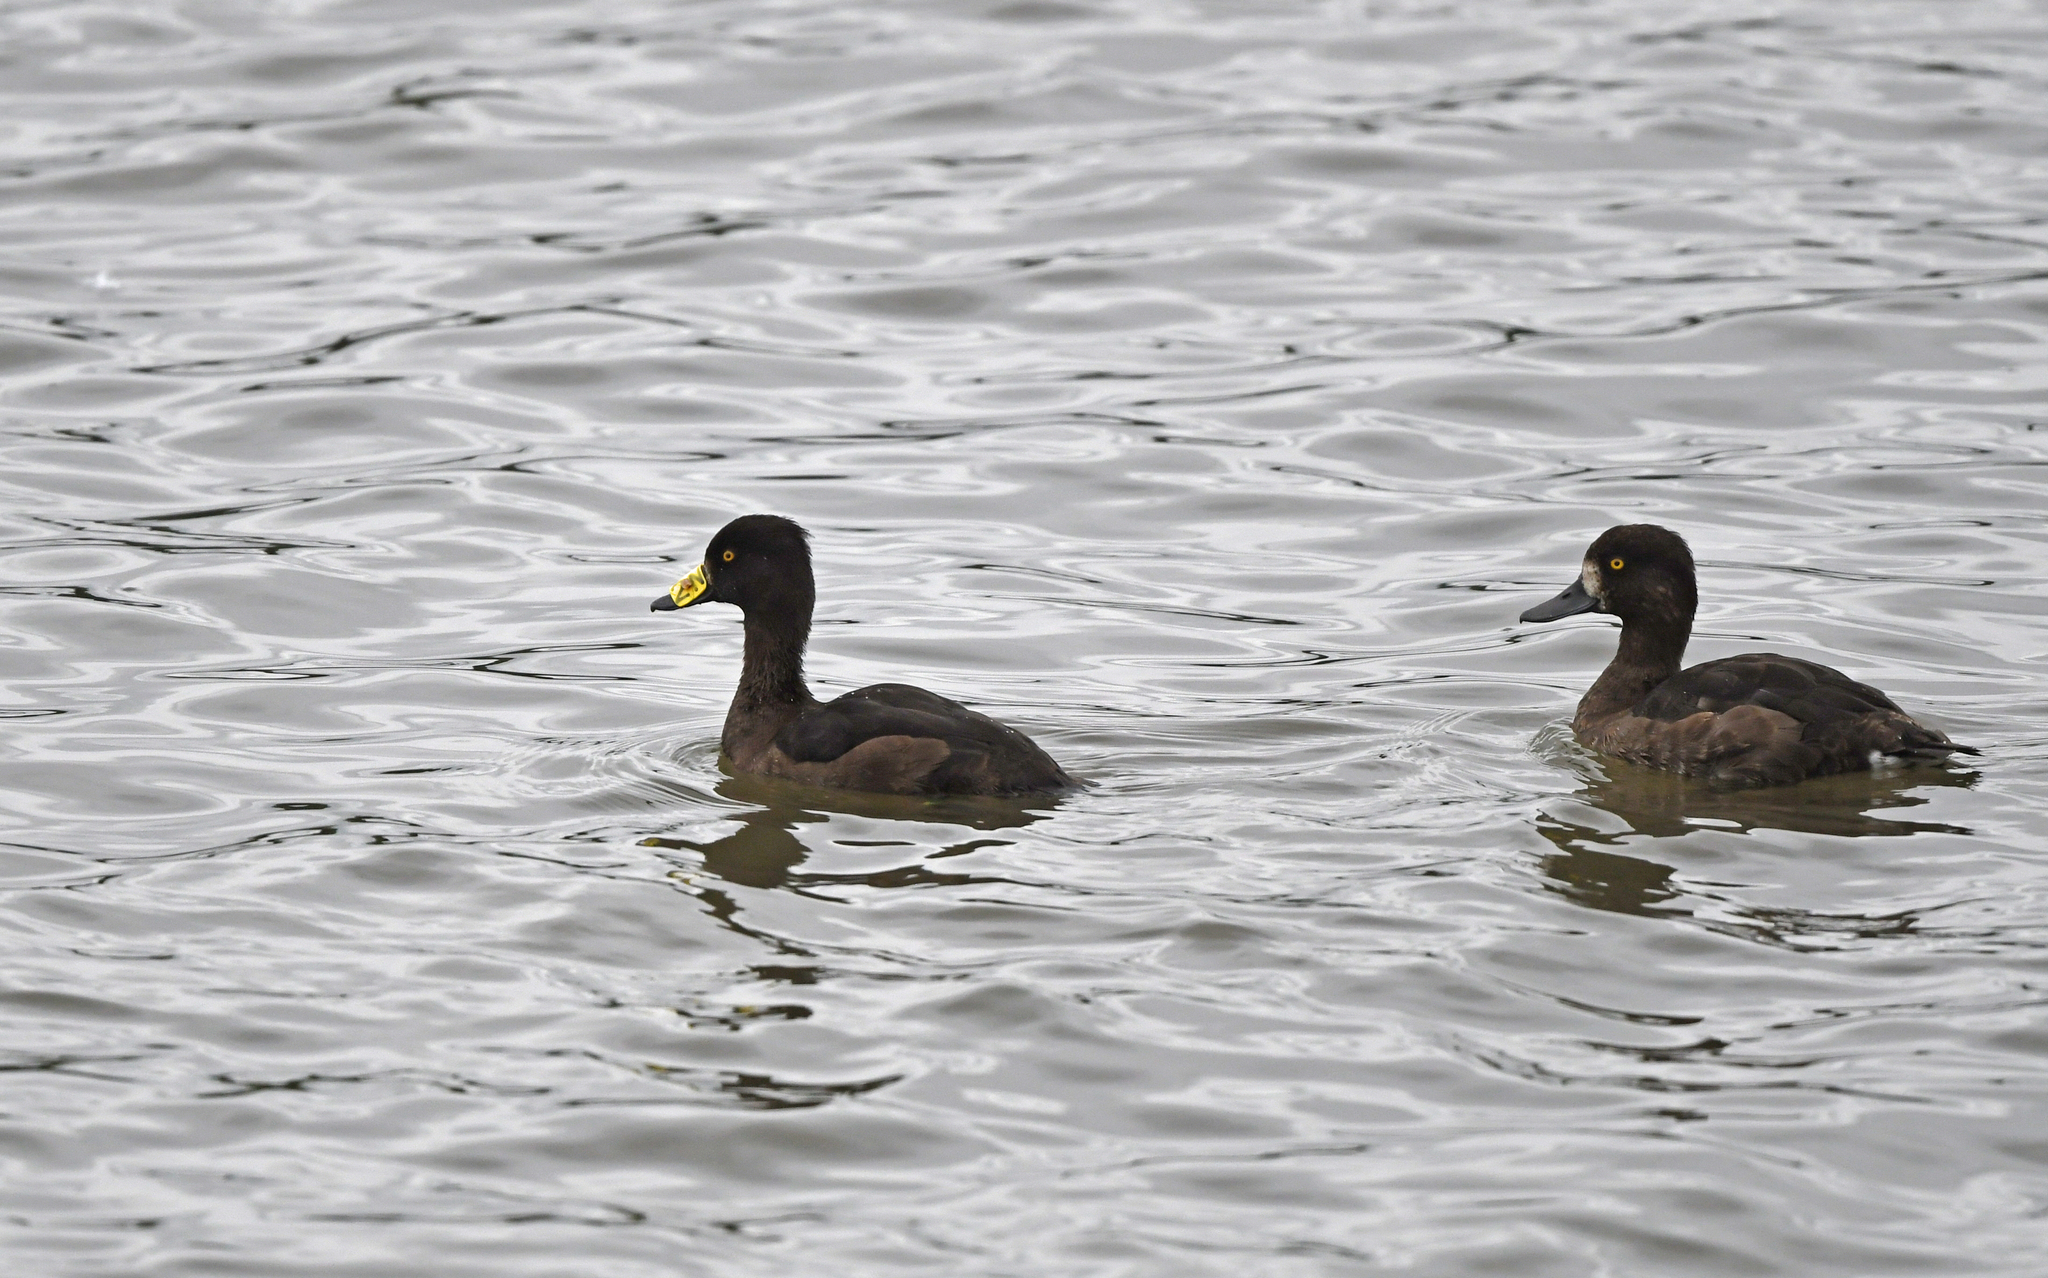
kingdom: Animalia
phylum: Chordata
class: Aves
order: Anseriformes
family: Anatidae
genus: Aythya
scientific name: Aythya fuligula
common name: Tufted duck
